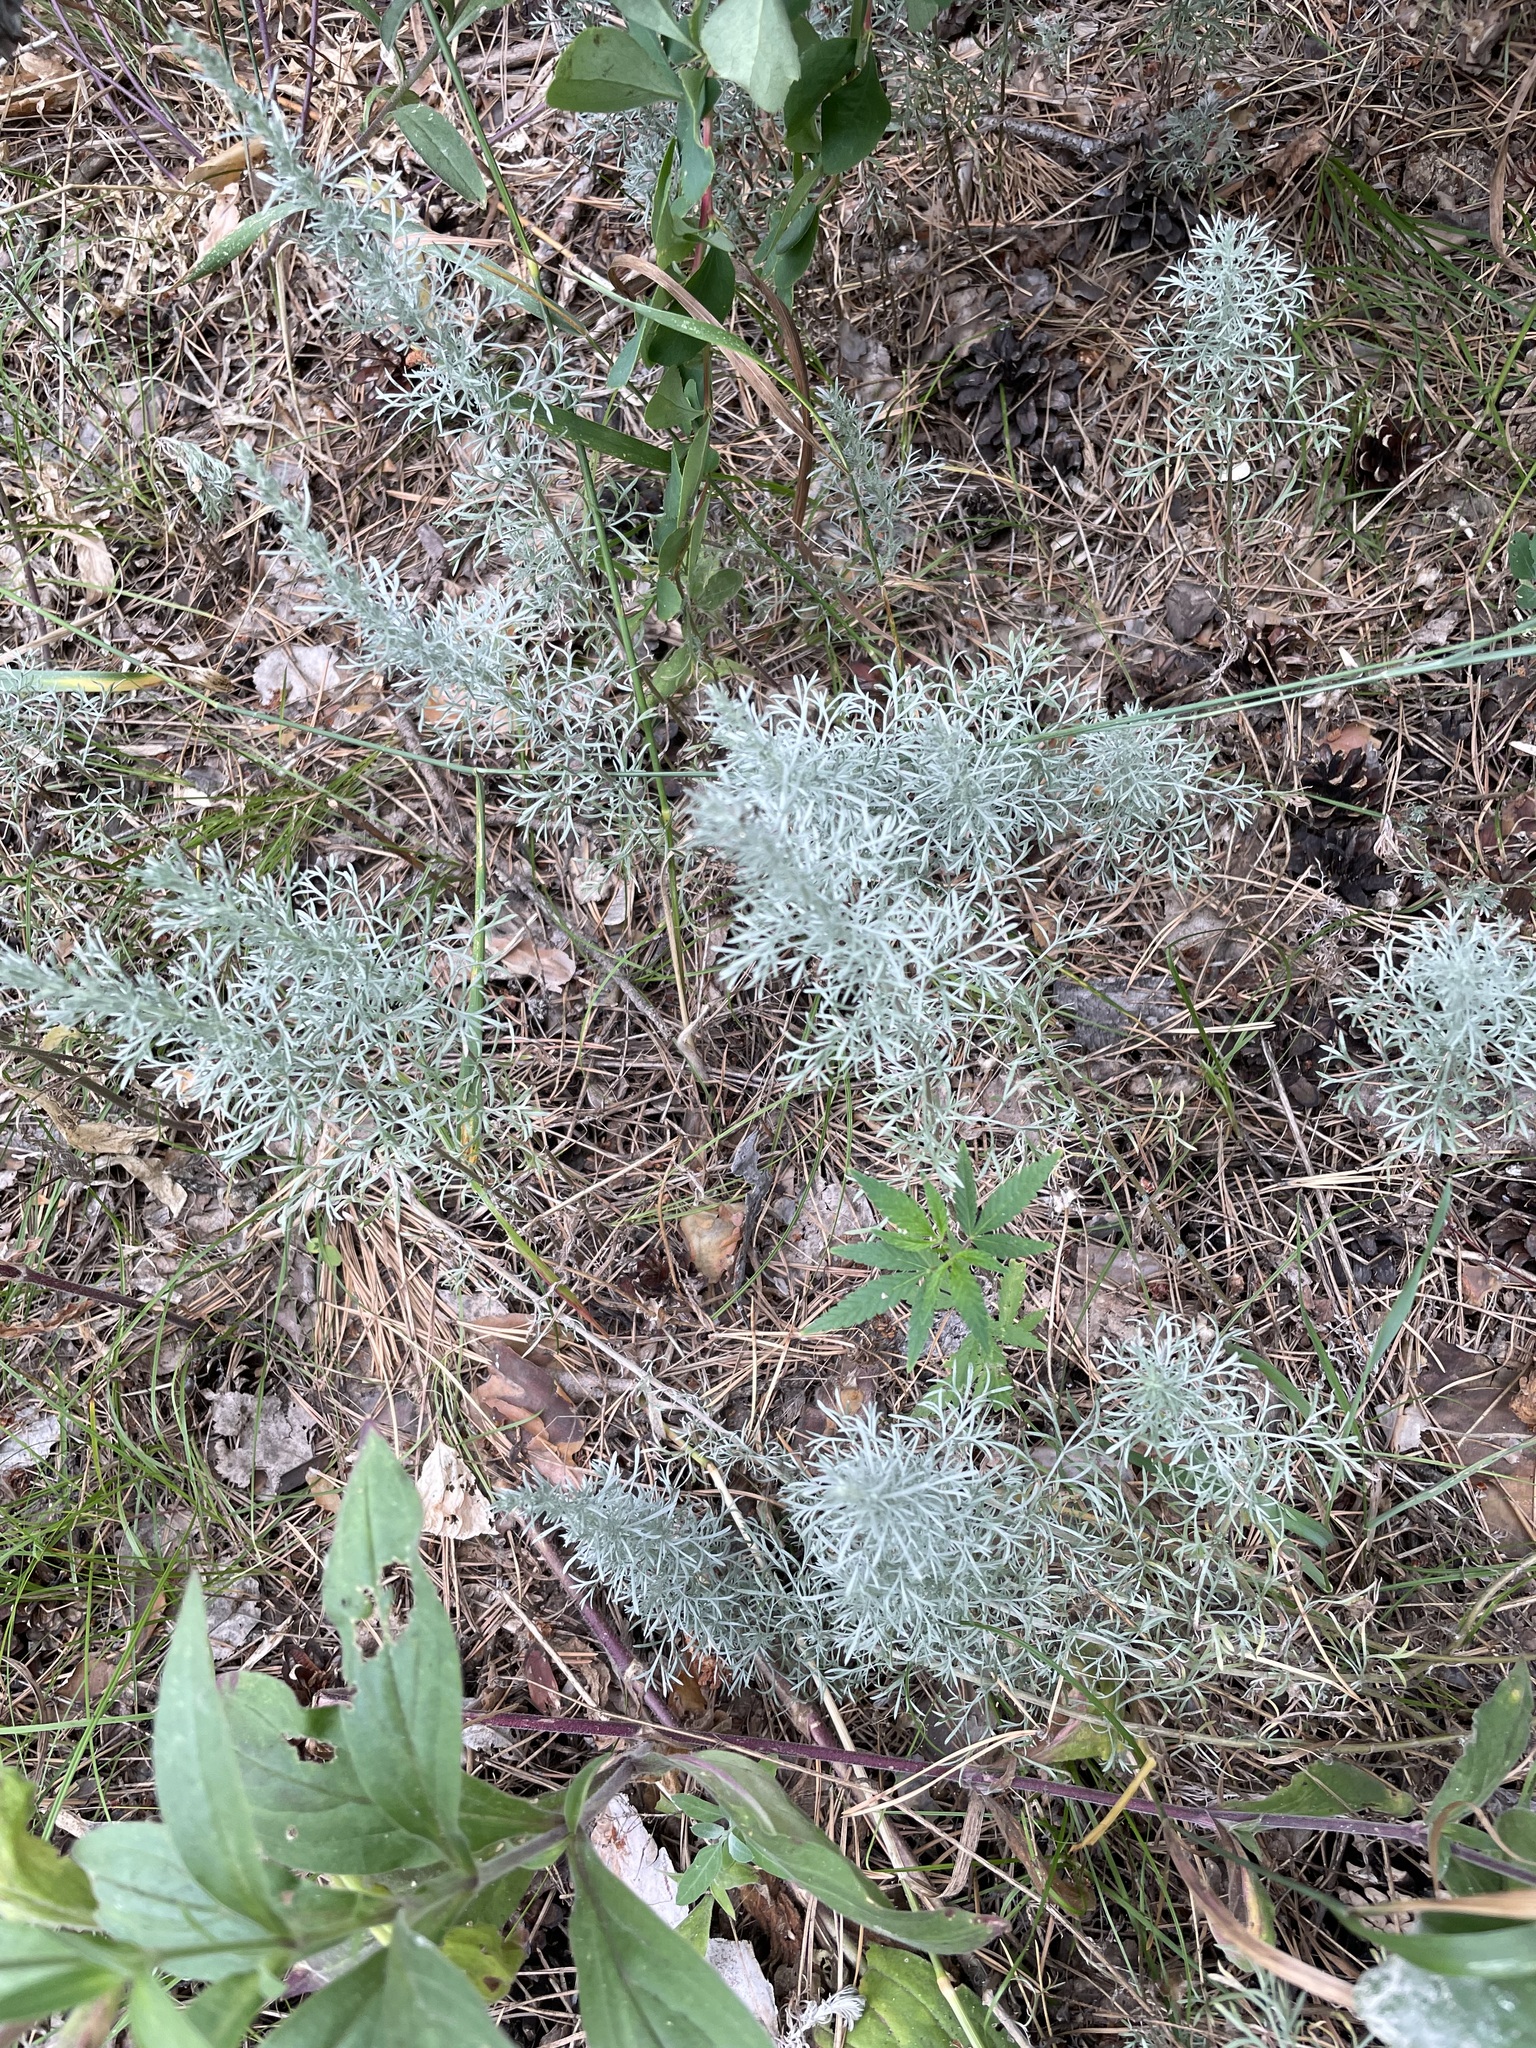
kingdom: Plantae
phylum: Tracheophyta
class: Magnoliopsida
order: Asterales
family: Asteraceae
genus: Artemisia
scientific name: Artemisia austriaca
